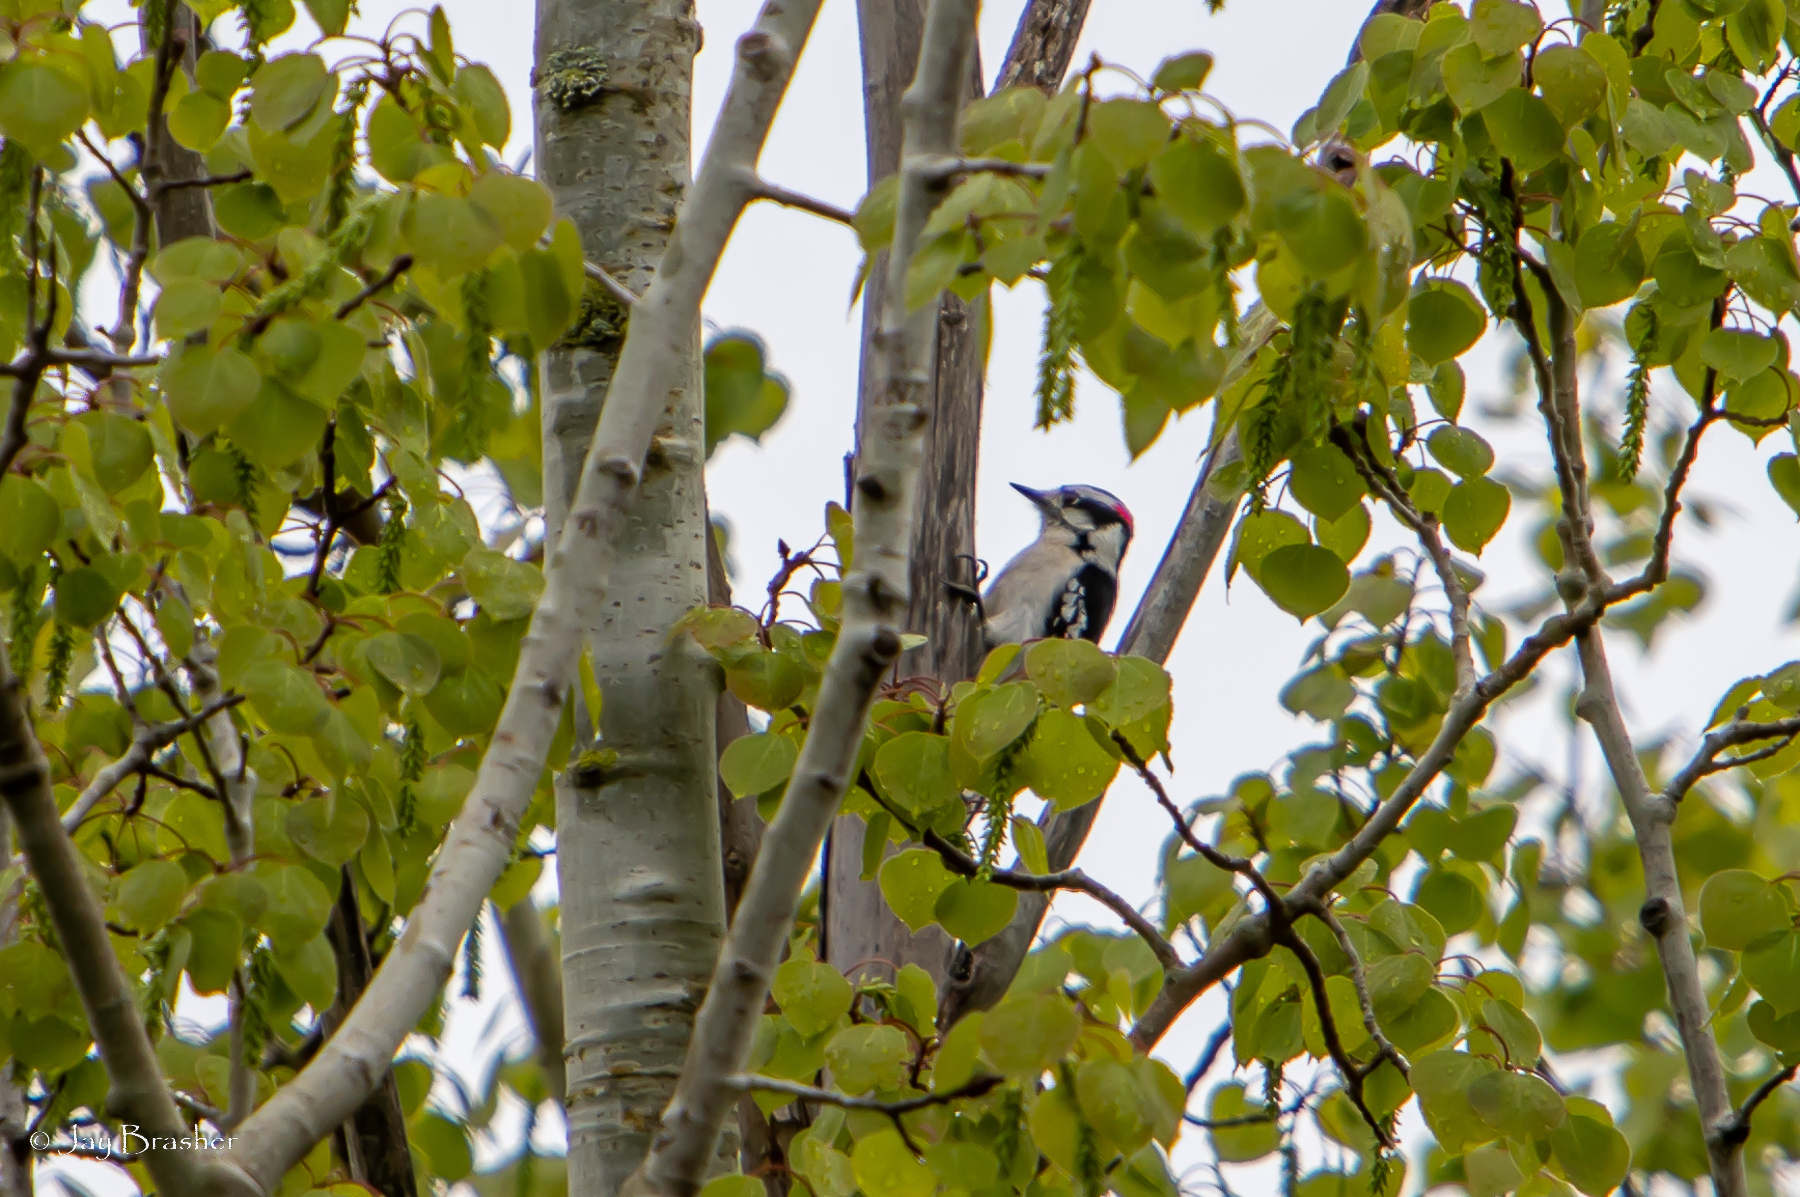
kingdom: Animalia
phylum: Chordata
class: Aves
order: Piciformes
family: Picidae
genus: Dryobates
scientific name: Dryobates pubescens
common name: Downy woodpecker
